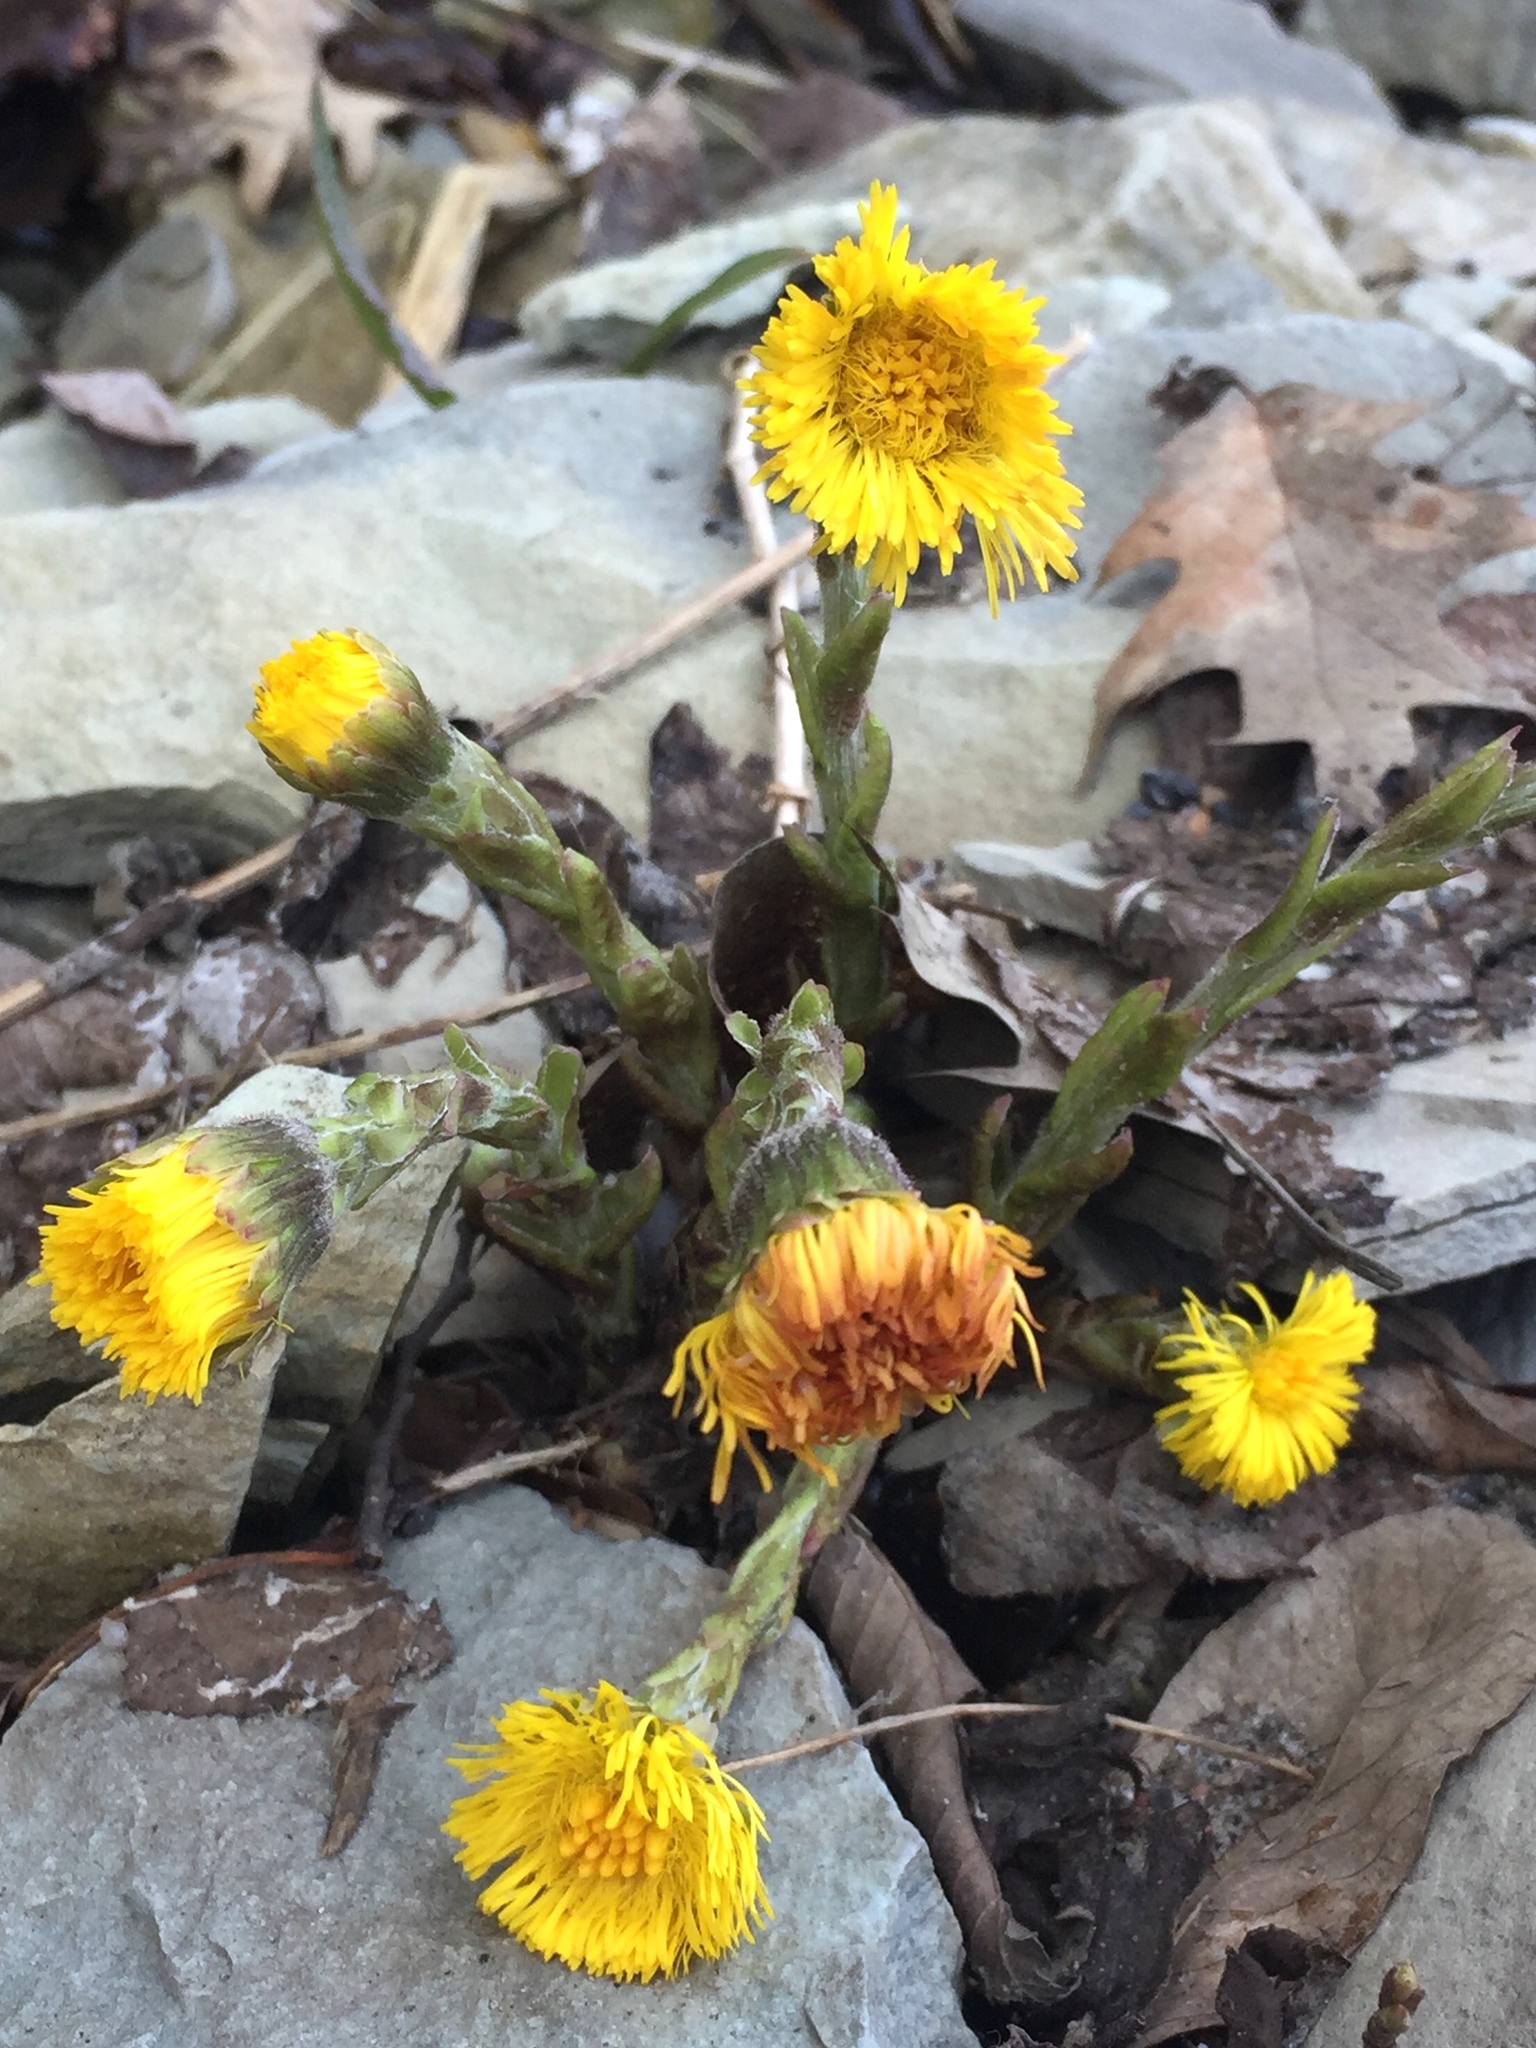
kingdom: Plantae
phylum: Tracheophyta
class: Magnoliopsida
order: Asterales
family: Asteraceae
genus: Tussilago
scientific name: Tussilago farfara
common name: Coltsfoot
